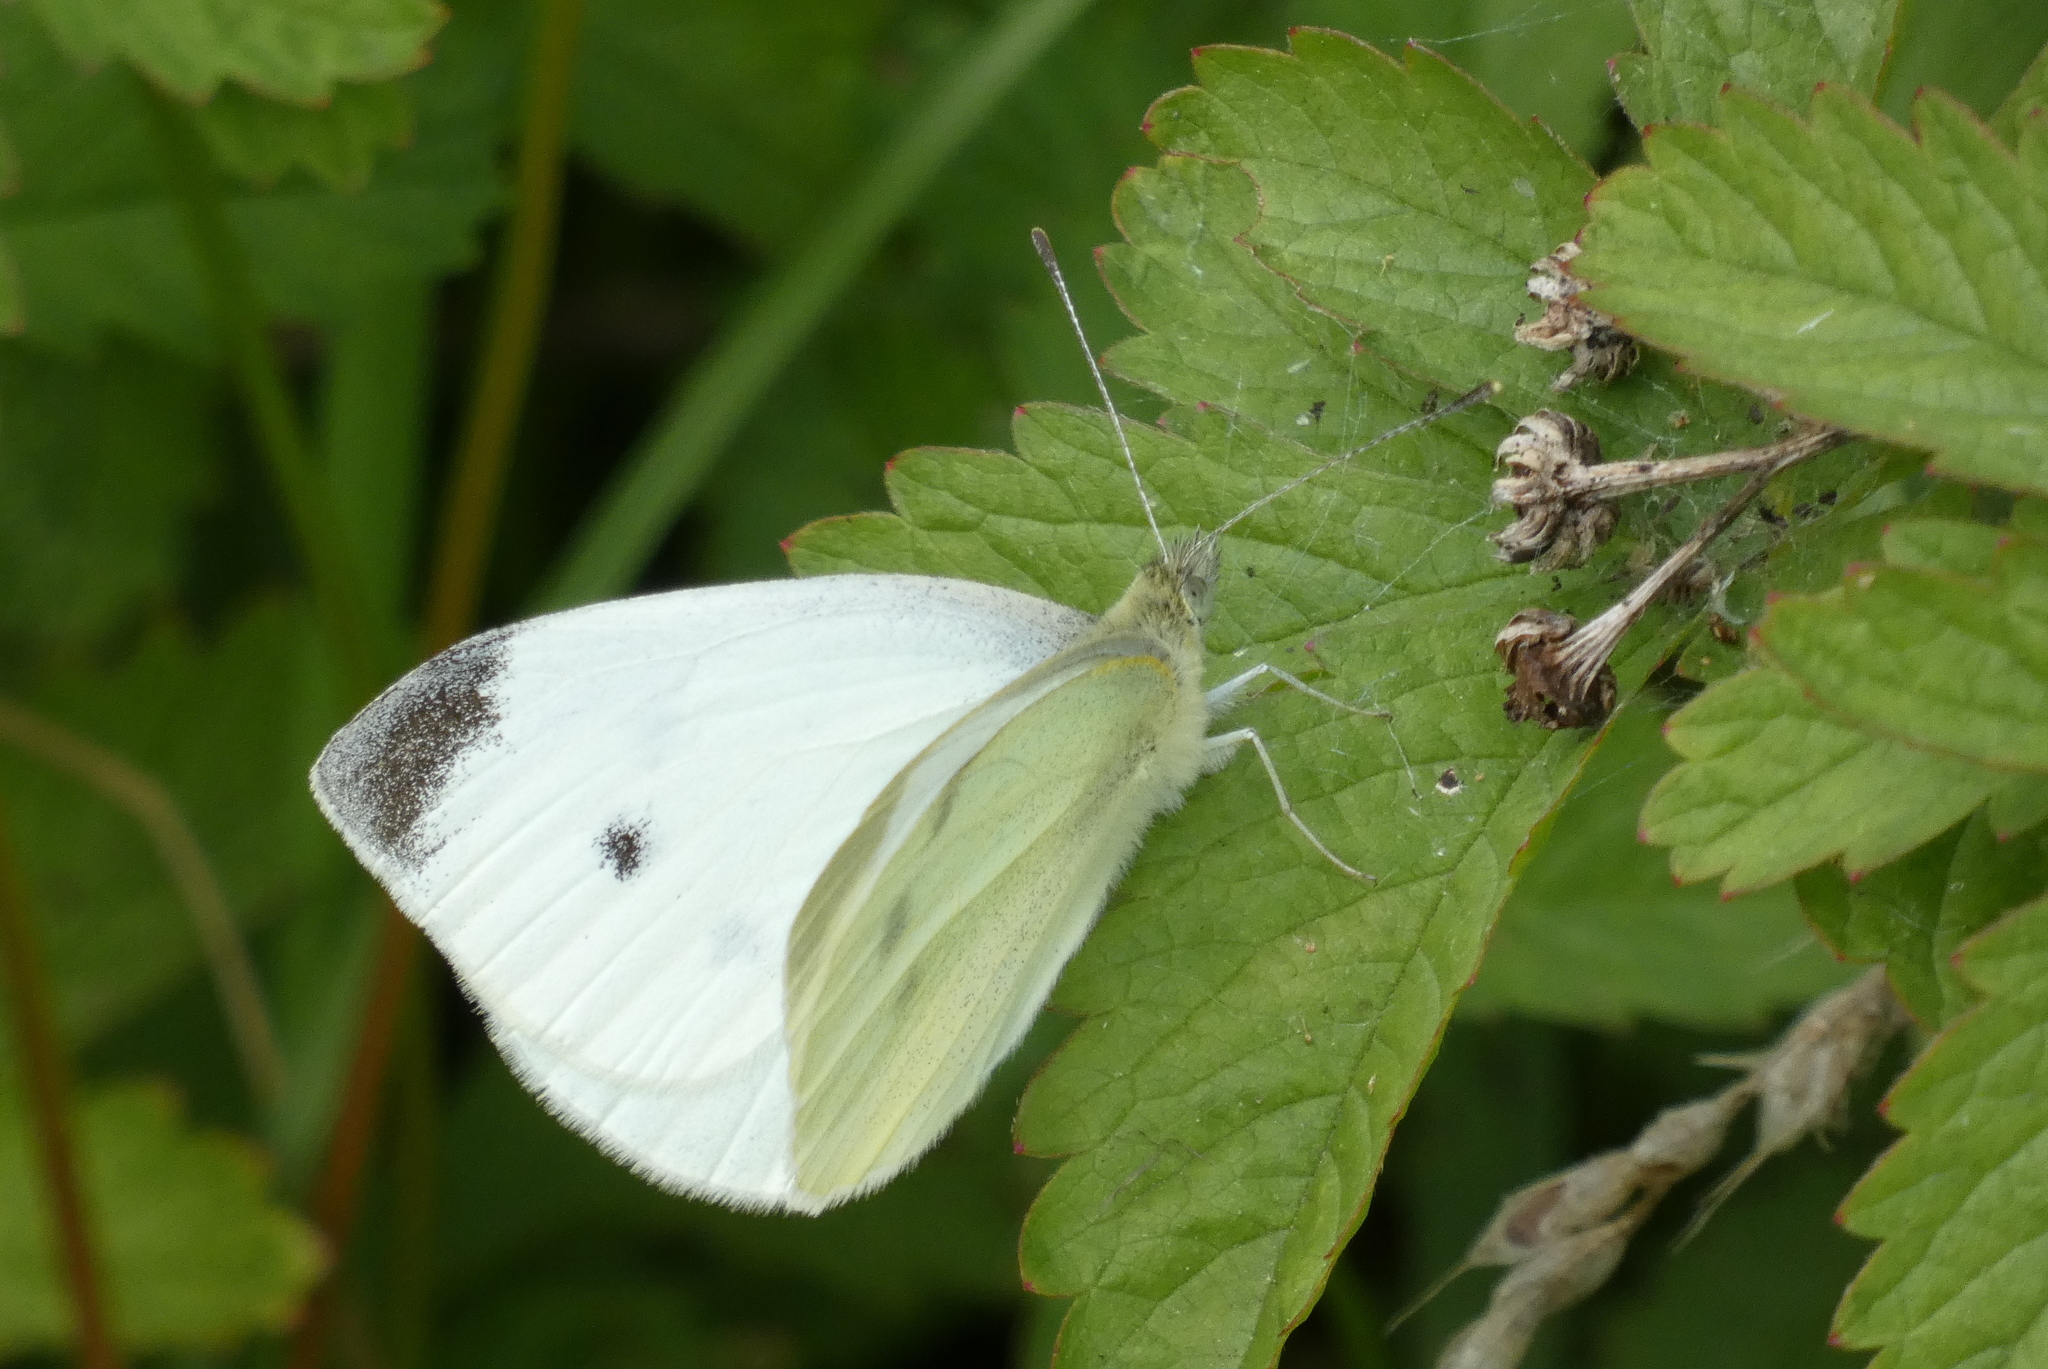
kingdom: Animalia
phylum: Arthropoda
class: Insecta
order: Lepidoptera
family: Pieridae
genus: Pieris
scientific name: Pieris rapae
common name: Small white
